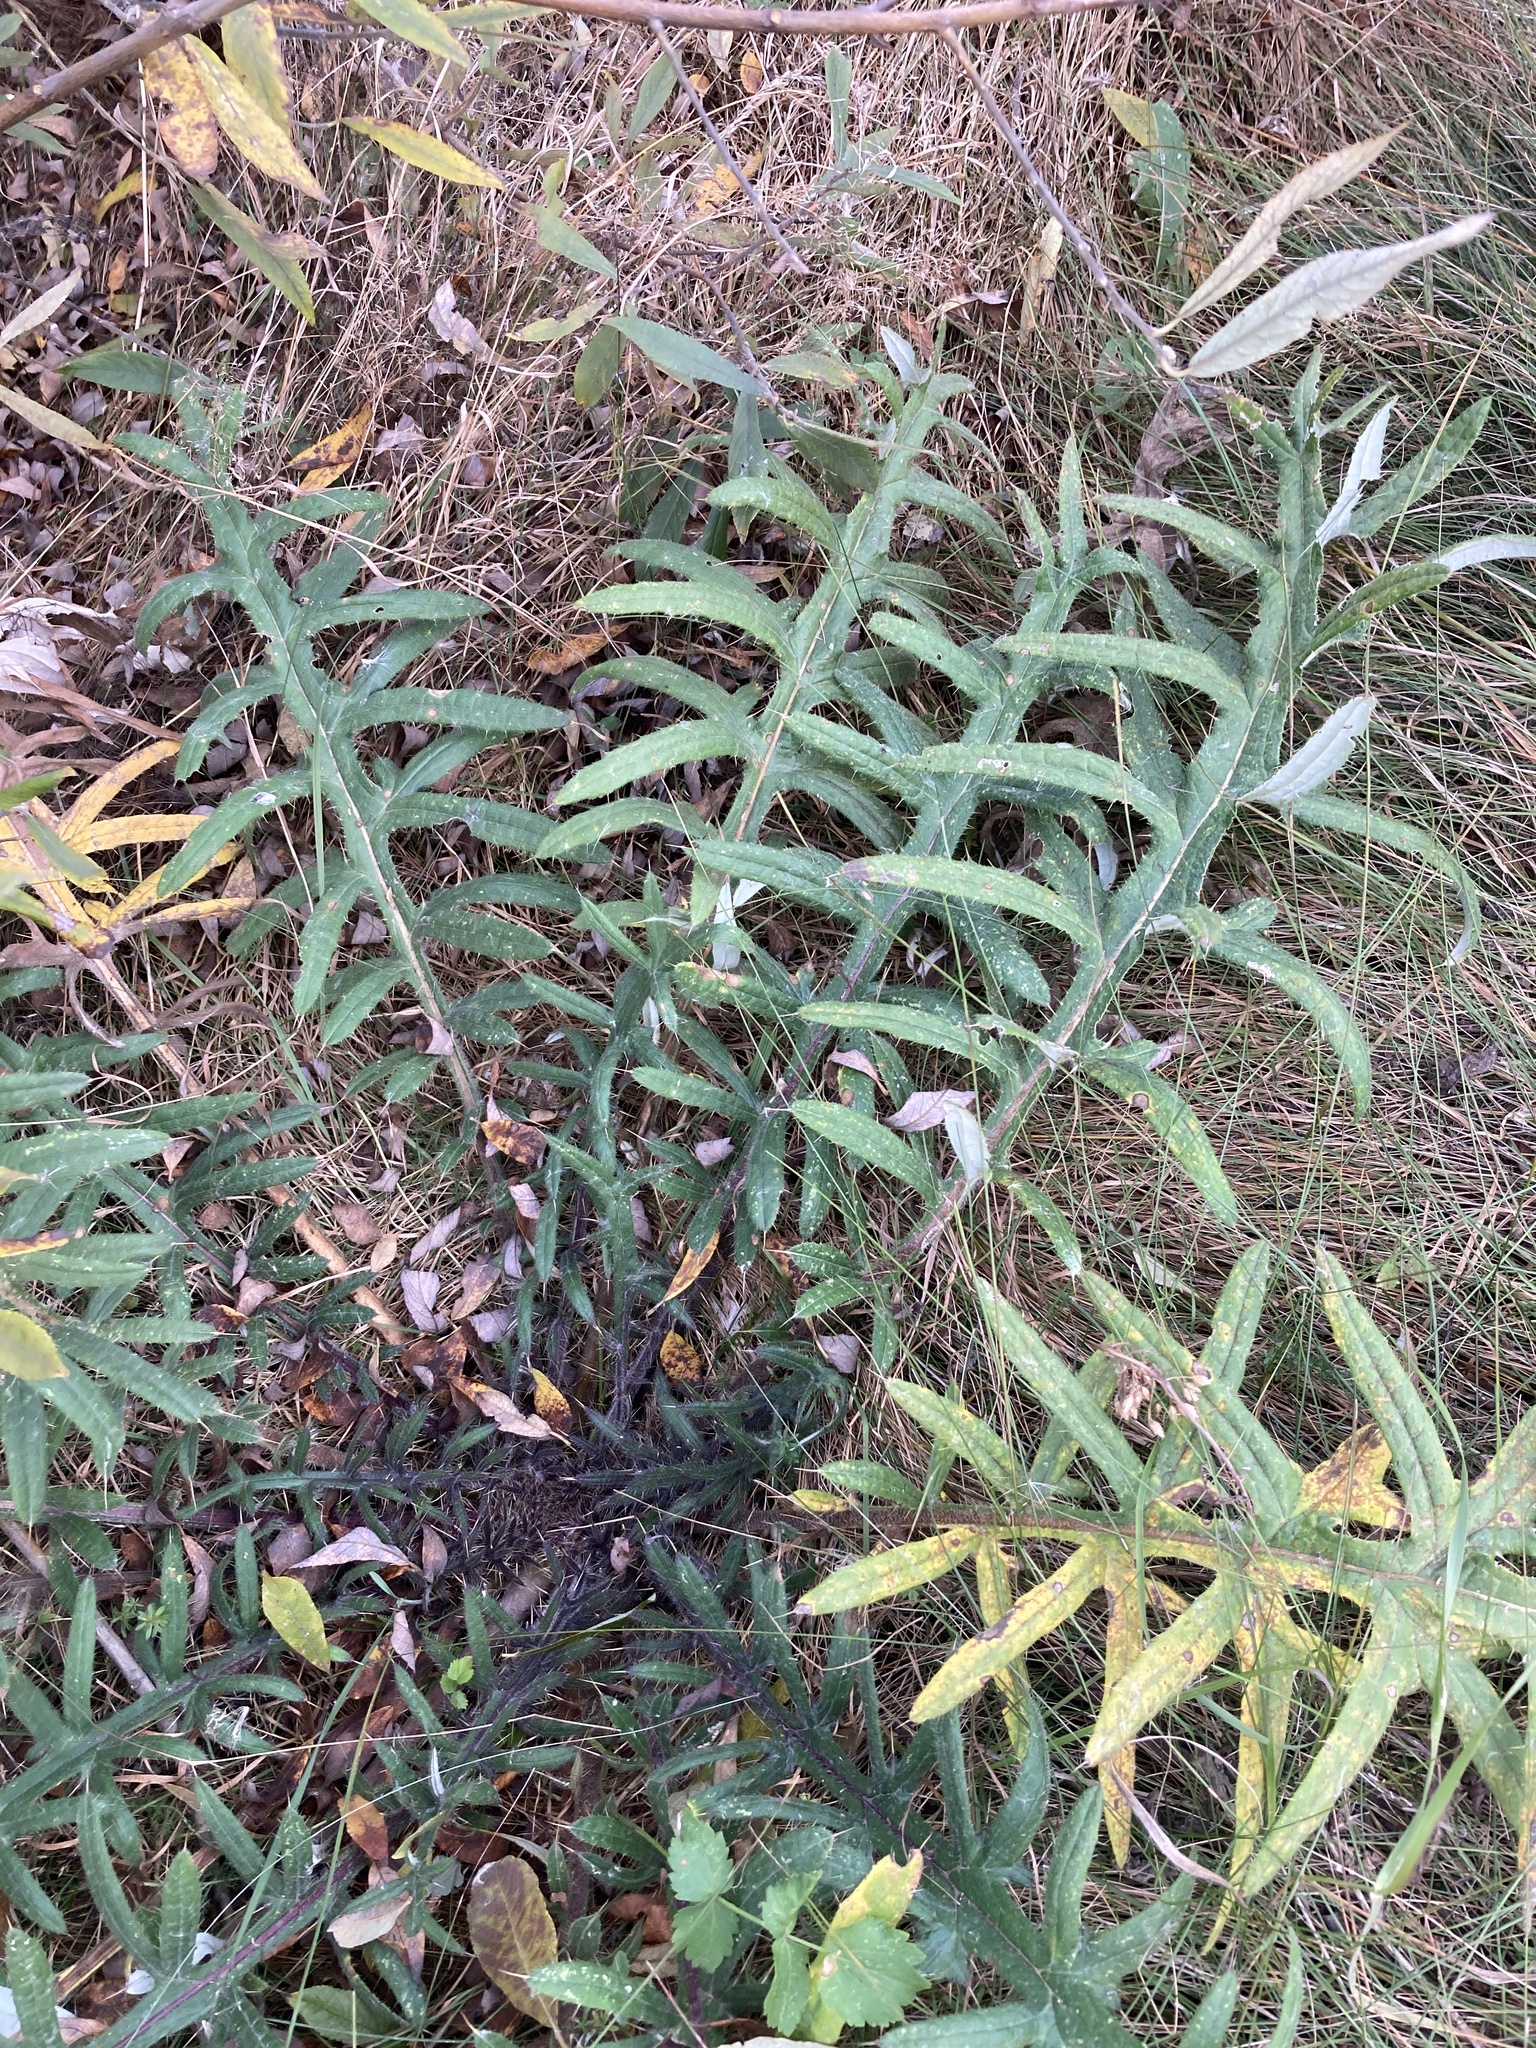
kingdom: Plantae
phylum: Tracheophyta
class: Magnoliopsida
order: Asterales
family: Asteraceae
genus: Lophiolepis
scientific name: Lophiolepis decussata
